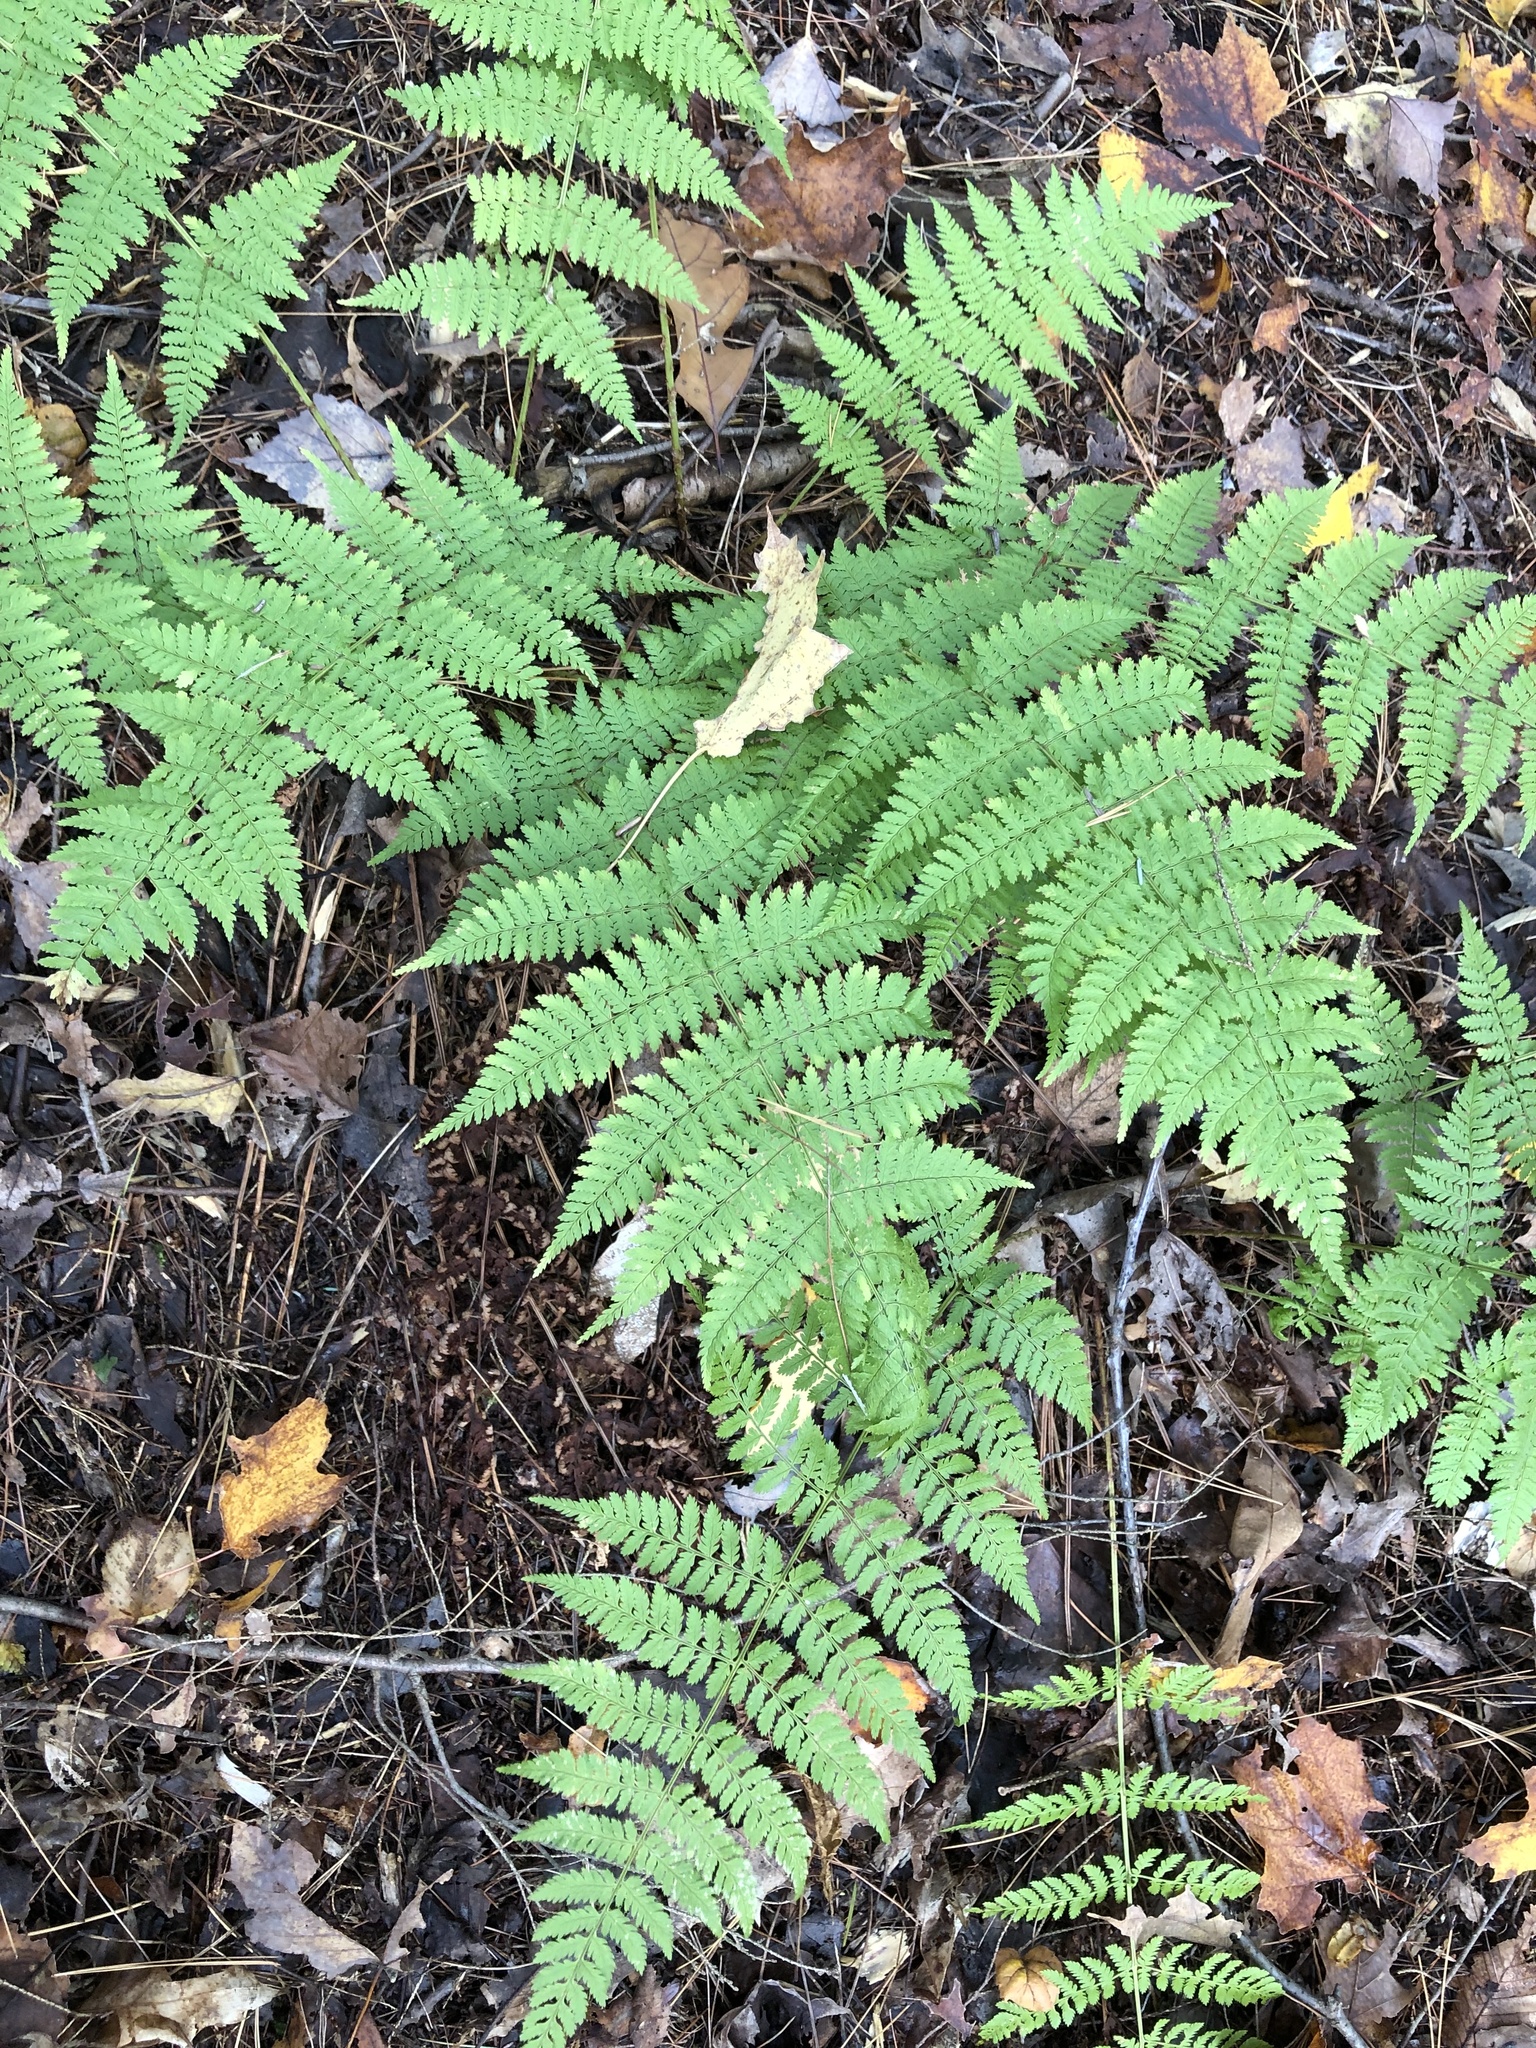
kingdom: Plantae
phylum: Tracheophyta
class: Polypodiopsida
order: Polypodiales
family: Dryopteridaceae
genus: Dryopteris
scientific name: Dryopteris intermedia
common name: Evergreen wood fern
